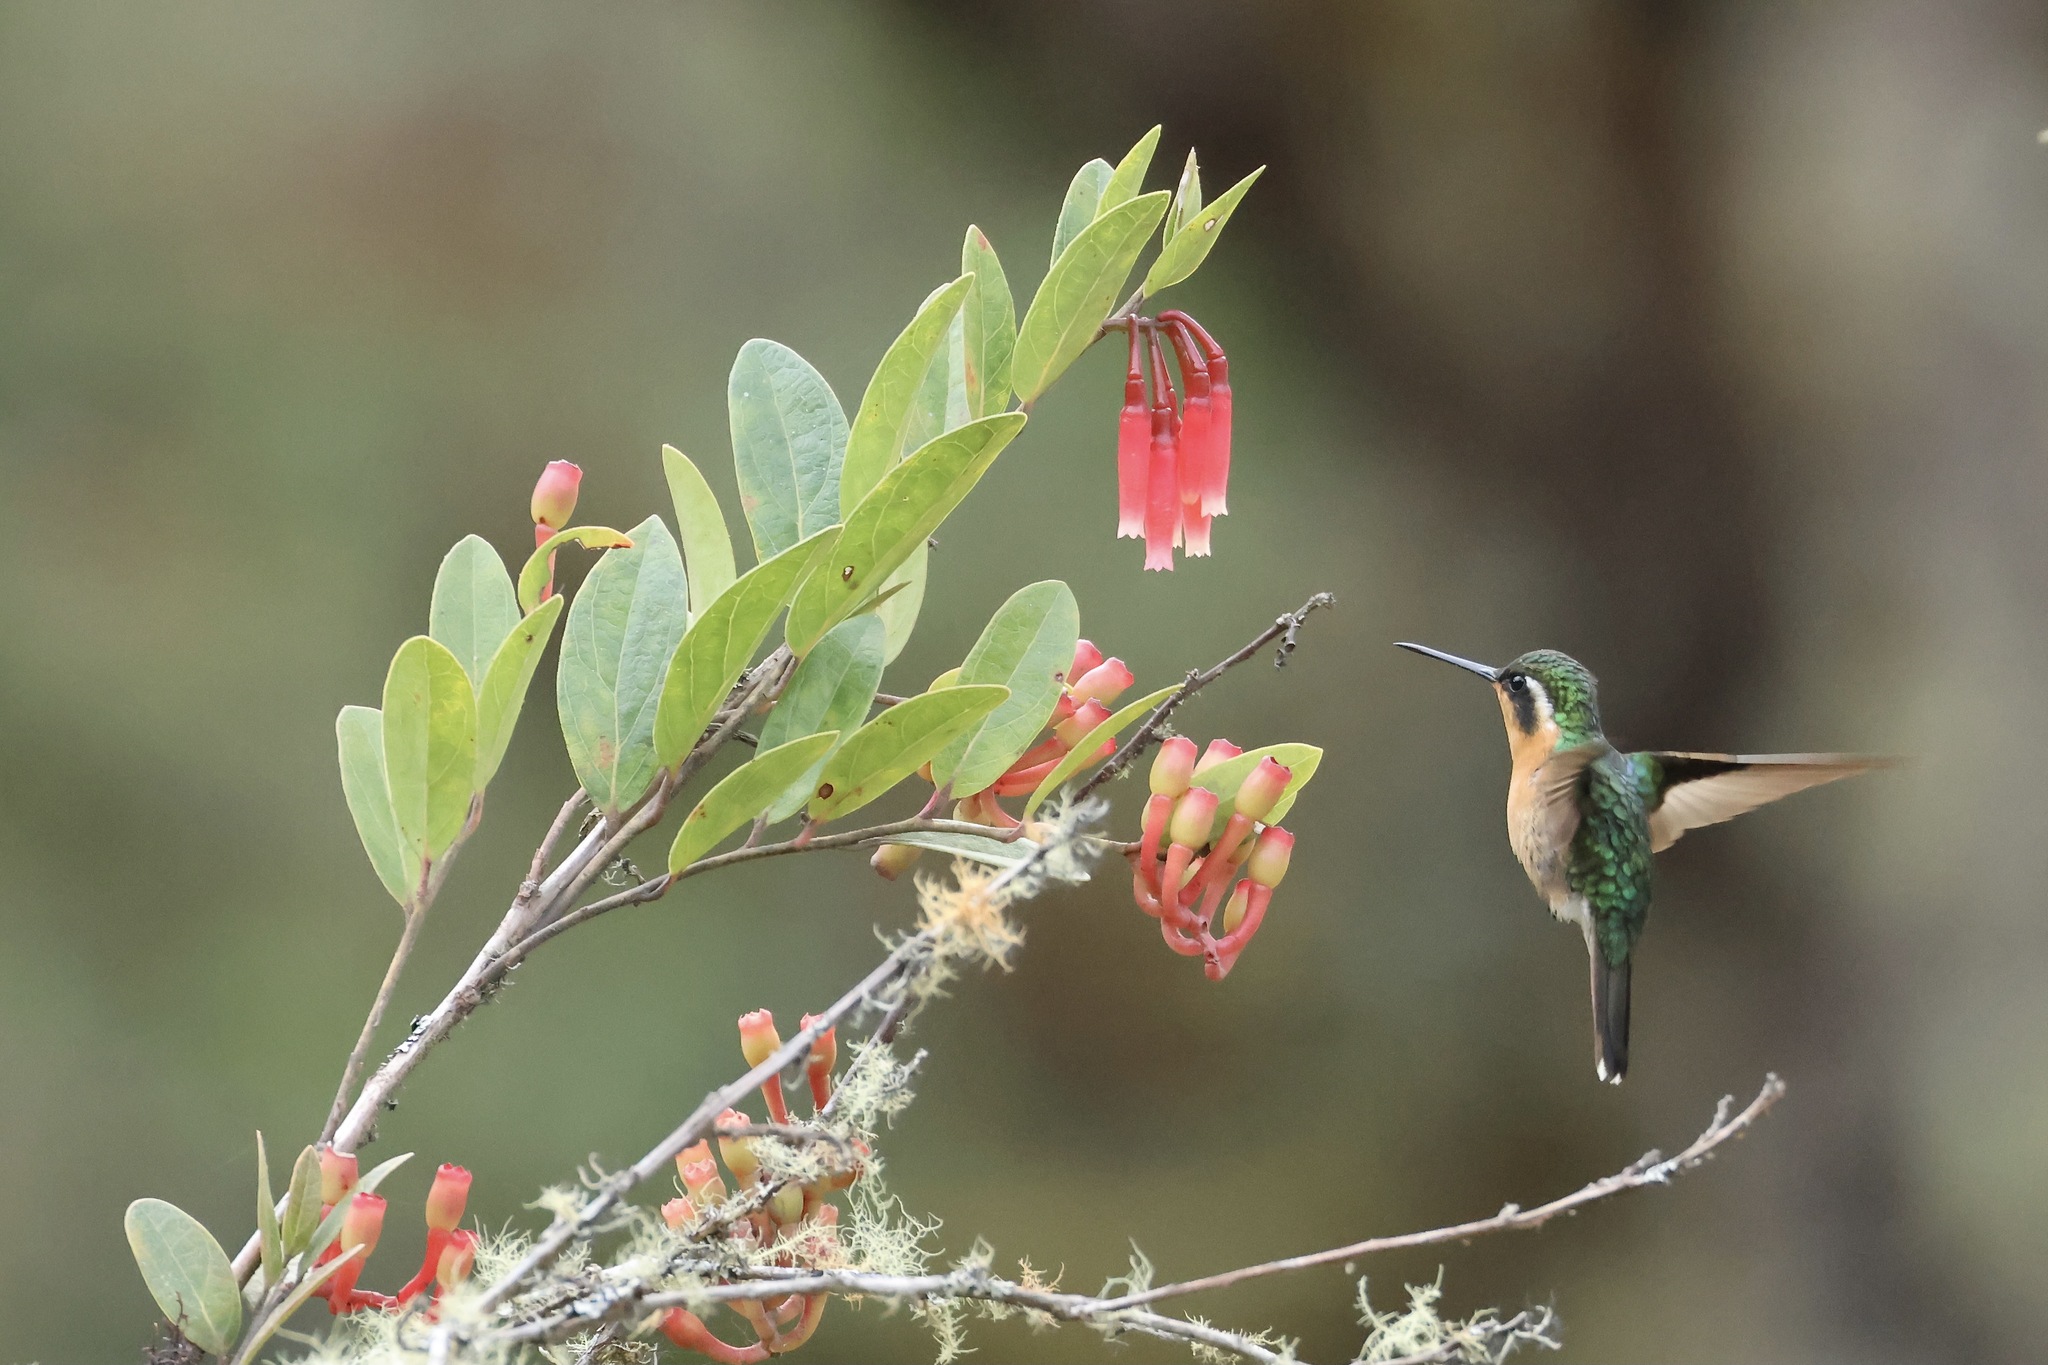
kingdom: Animalia
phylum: Chordata
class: Aves
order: Apodiformes
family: Trochilidae
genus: Lampornis
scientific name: Lampornis castaneoventris
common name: White-throated mountain-gem
